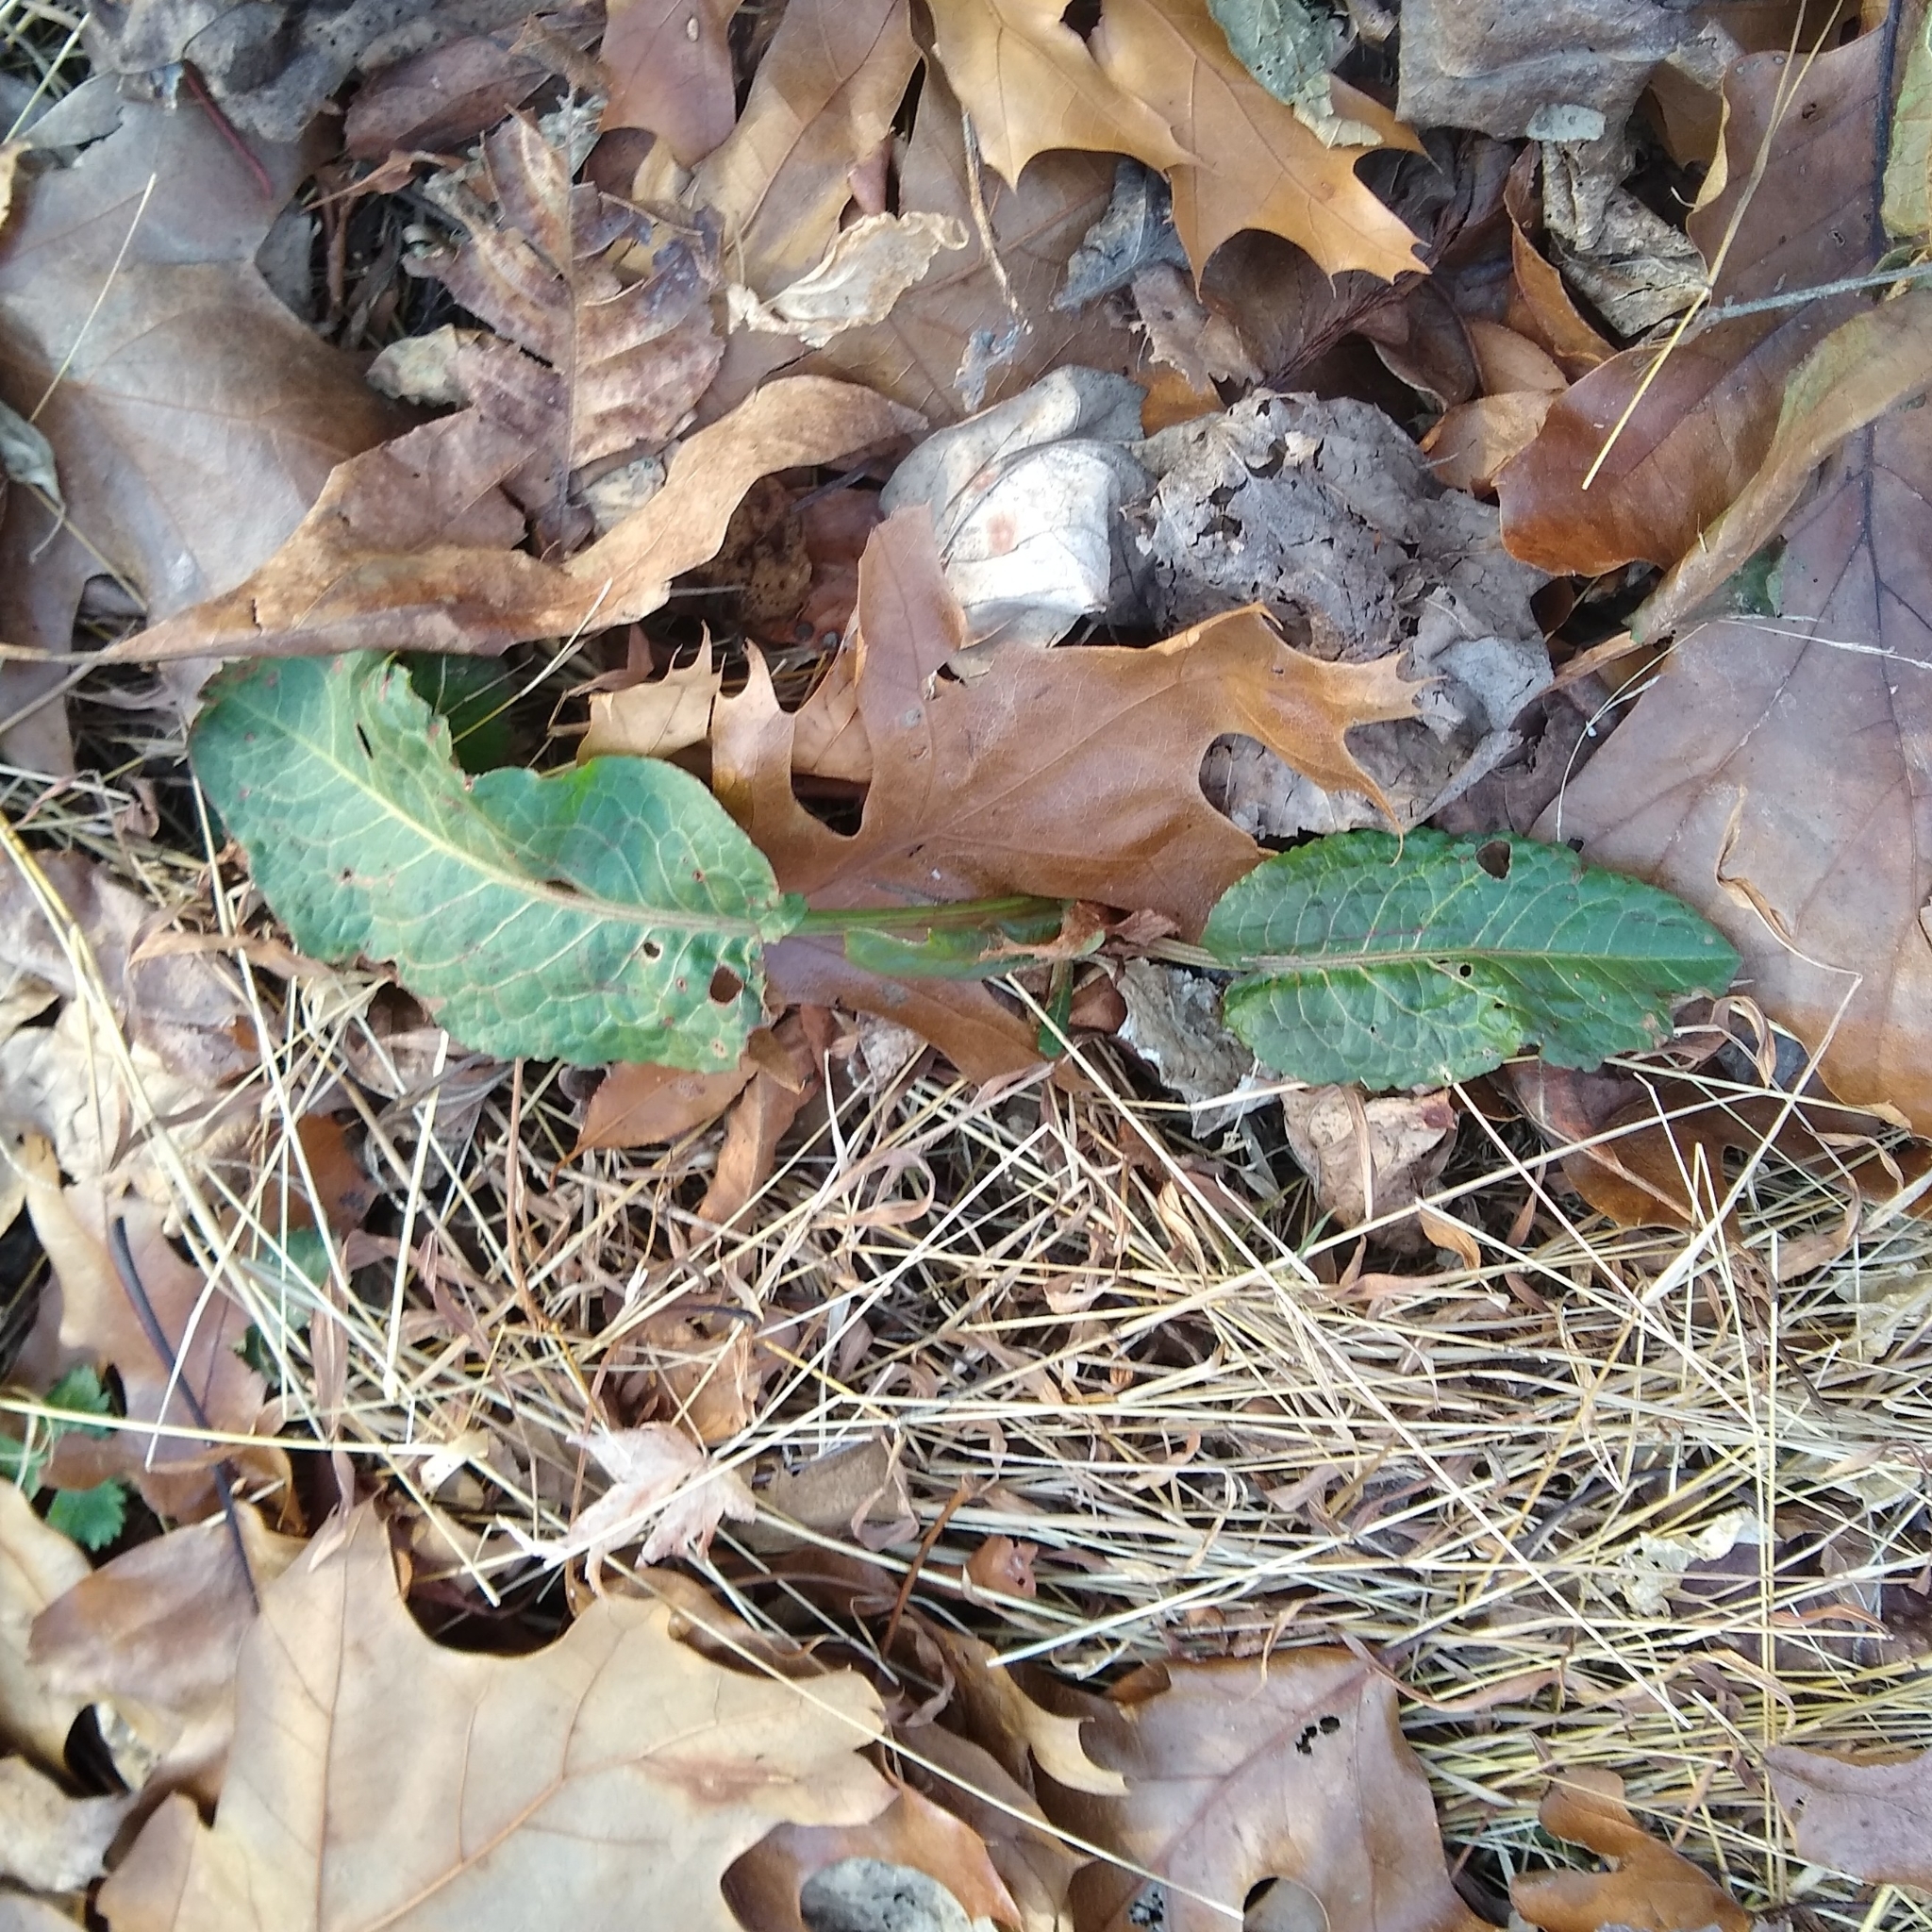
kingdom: Plantae
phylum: Tracheophyta
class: Magnoliopsida
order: Caryophyllales
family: Polygonaceae
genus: Rumex
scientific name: Rumex obtusifolius
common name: Bitter dock
